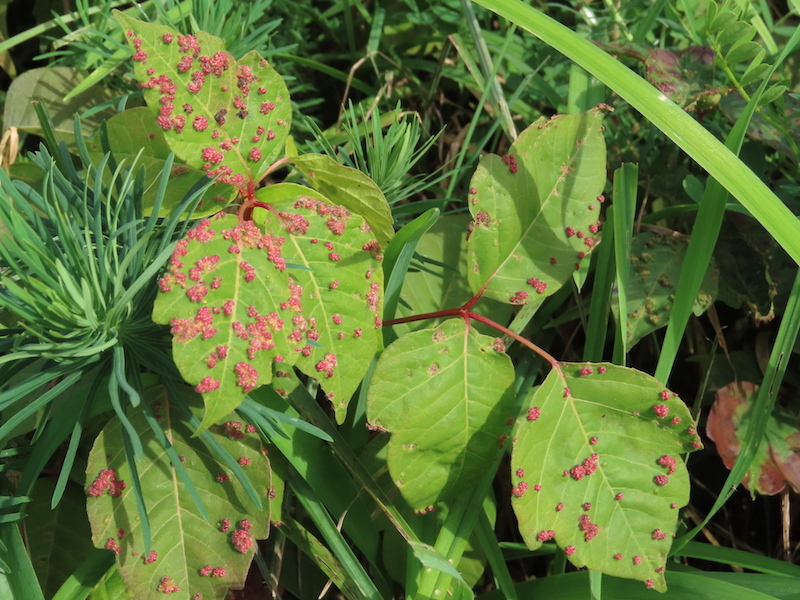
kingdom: Animalia
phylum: Arthropoda
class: Arachnida
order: Trombidiformes
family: Eriophyidae
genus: Aculops
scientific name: Aculops
